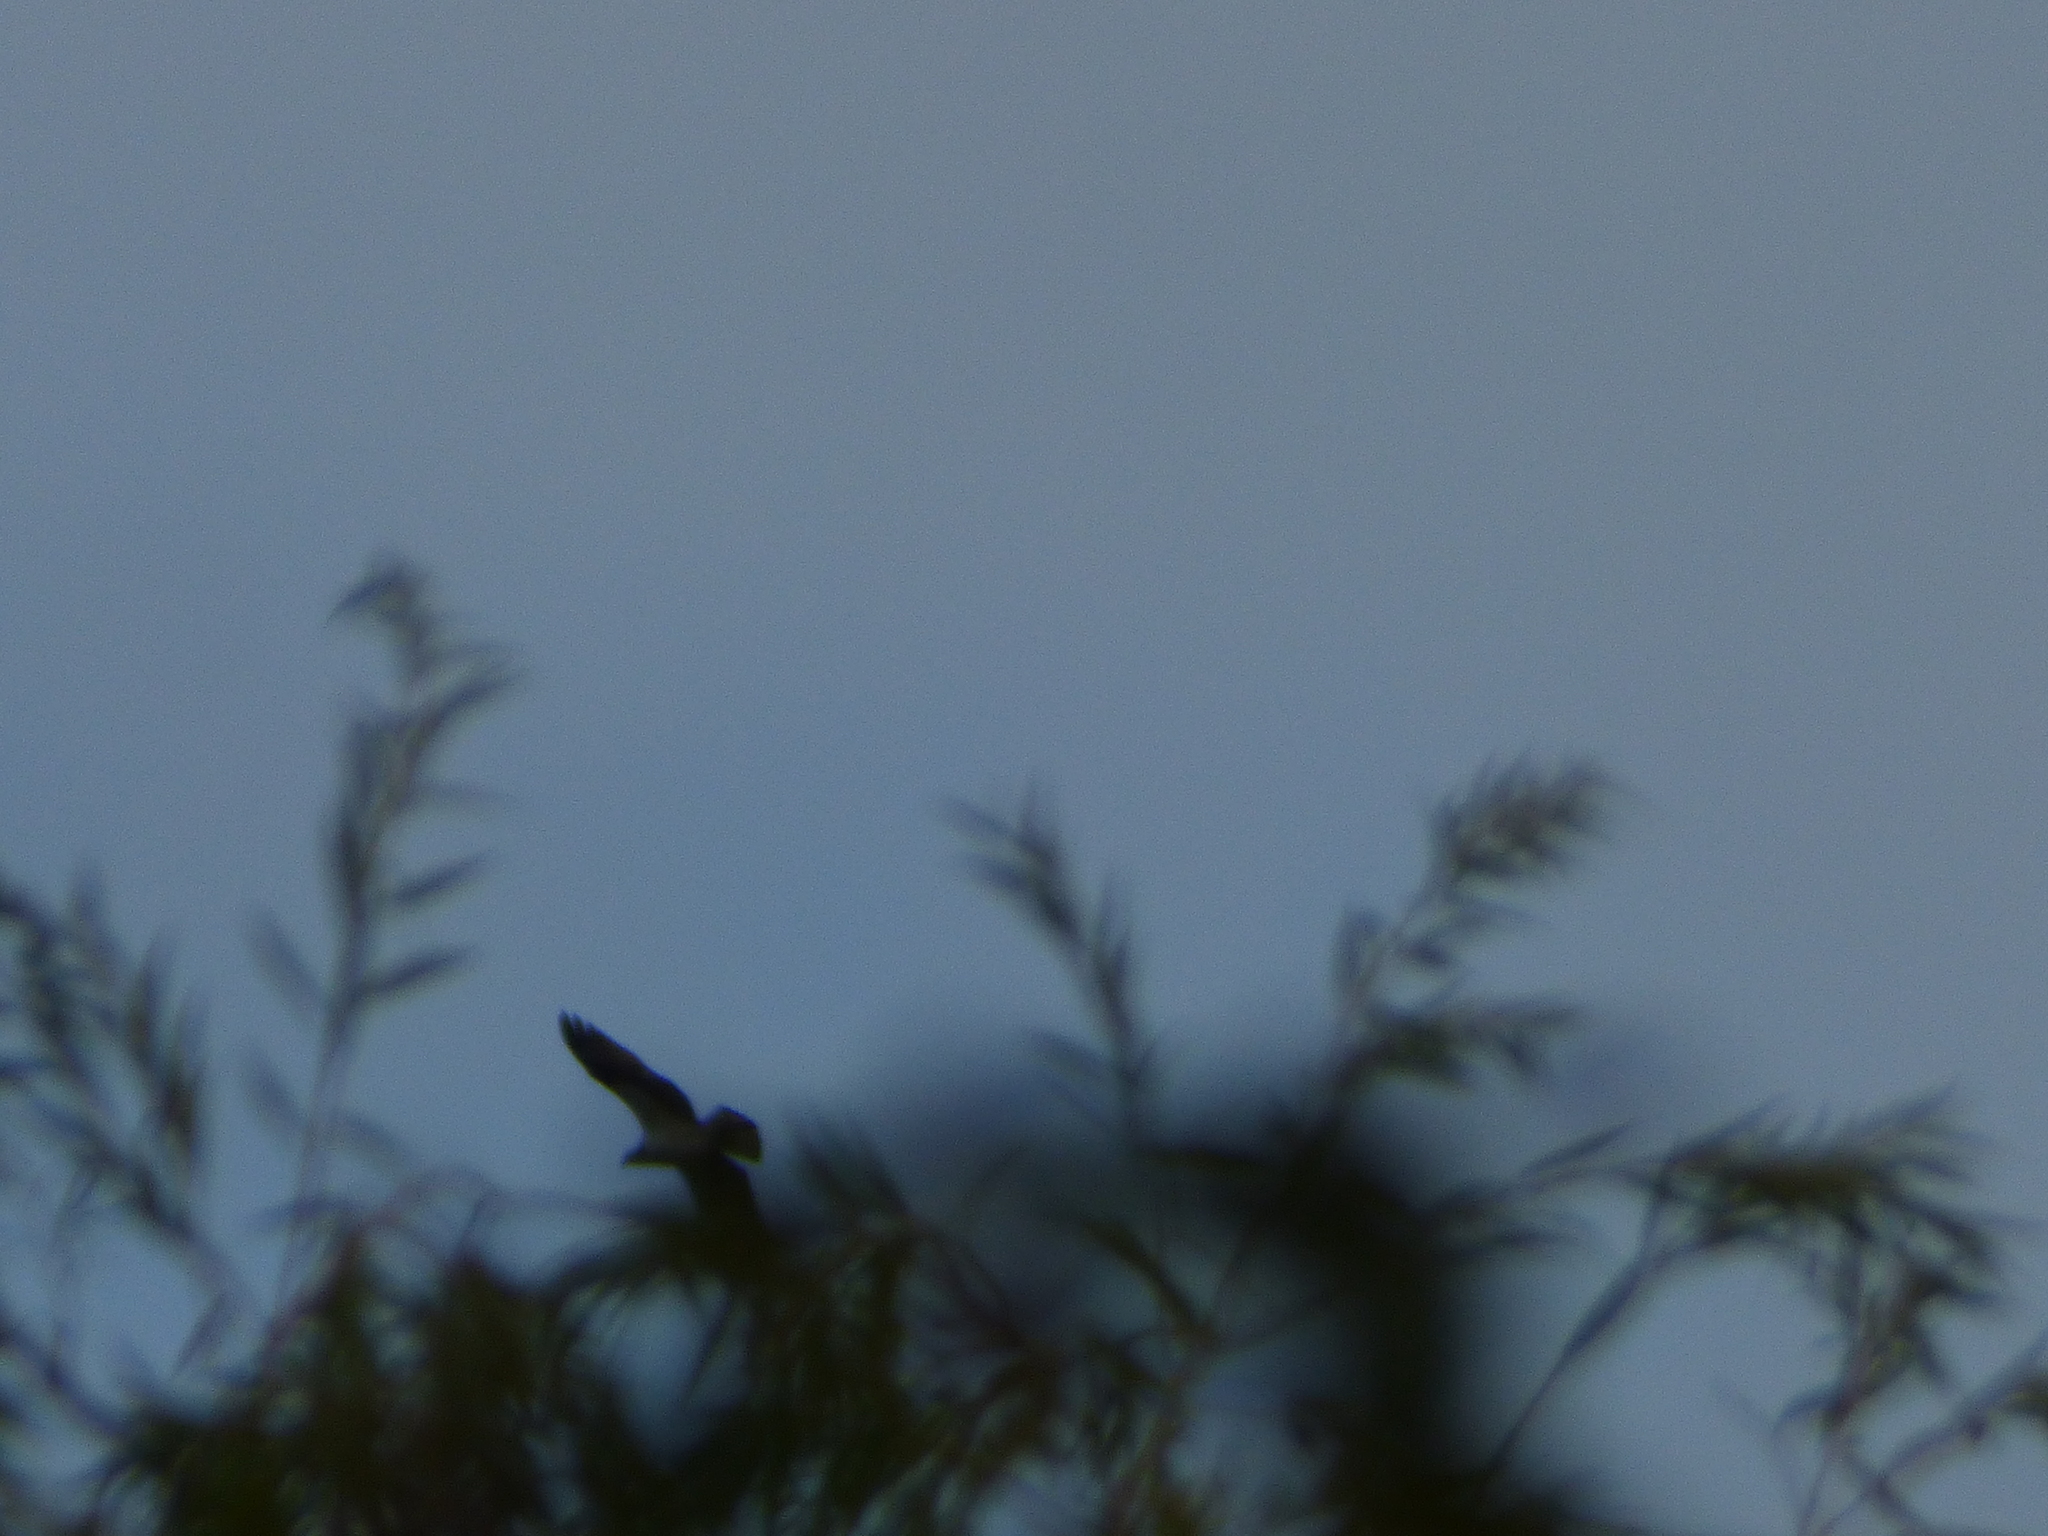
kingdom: Animalia
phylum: Chordata
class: Aves
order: Accipitriformes
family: Pandionidae
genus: Pandion
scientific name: Pandion haliaetus
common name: Osprey
